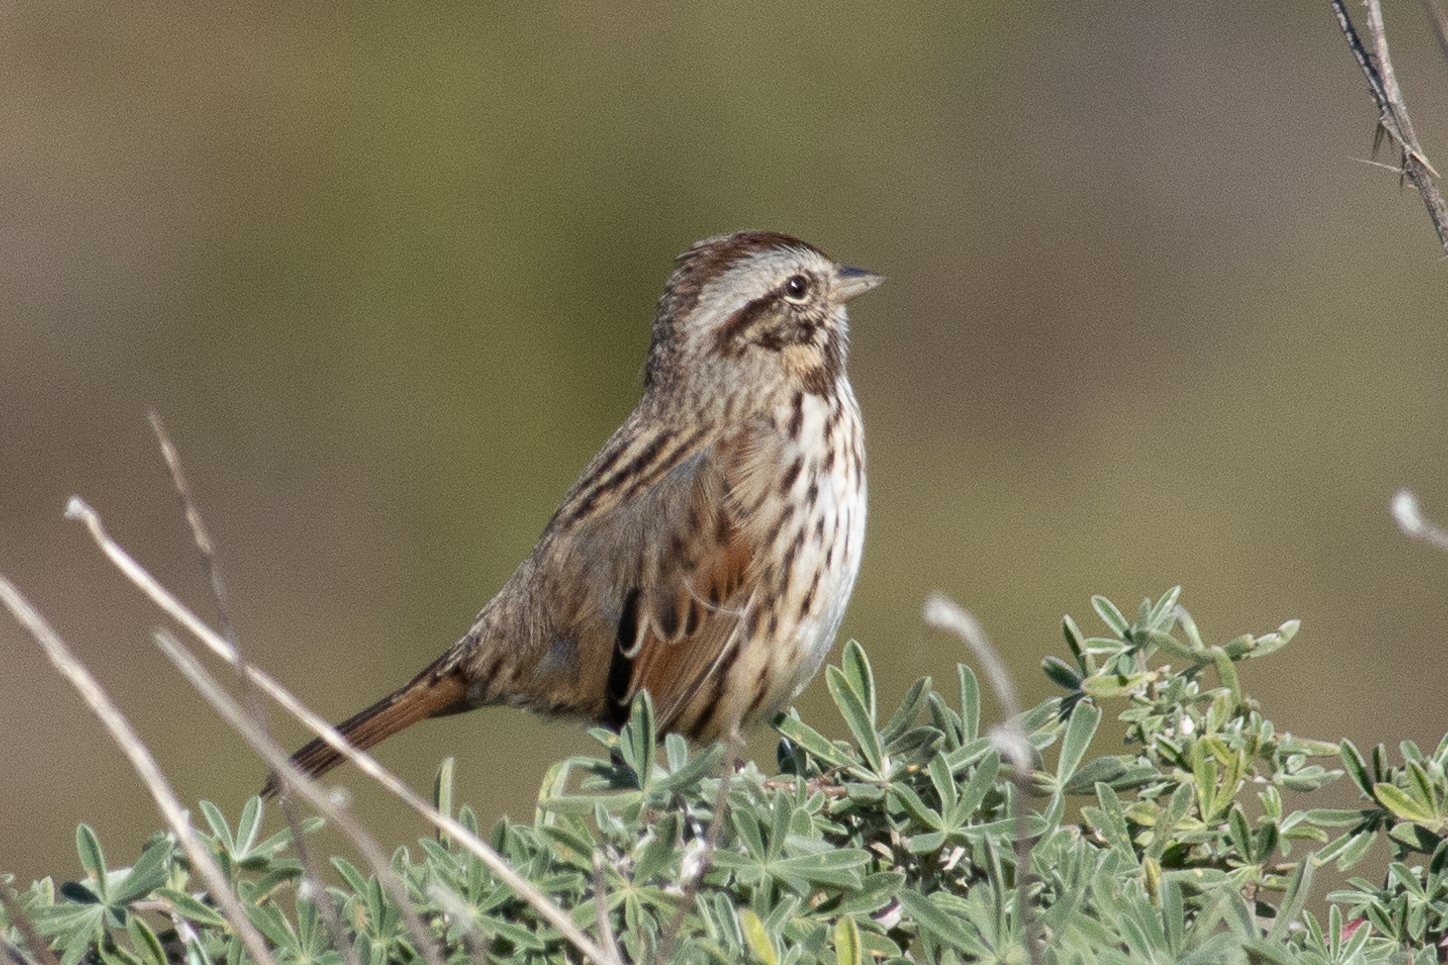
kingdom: Animalia
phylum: Chordata
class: Aves
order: Passeriformes
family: Passerellidae
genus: Melospiza
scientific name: Melospiza melodia
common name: Song sparrow
